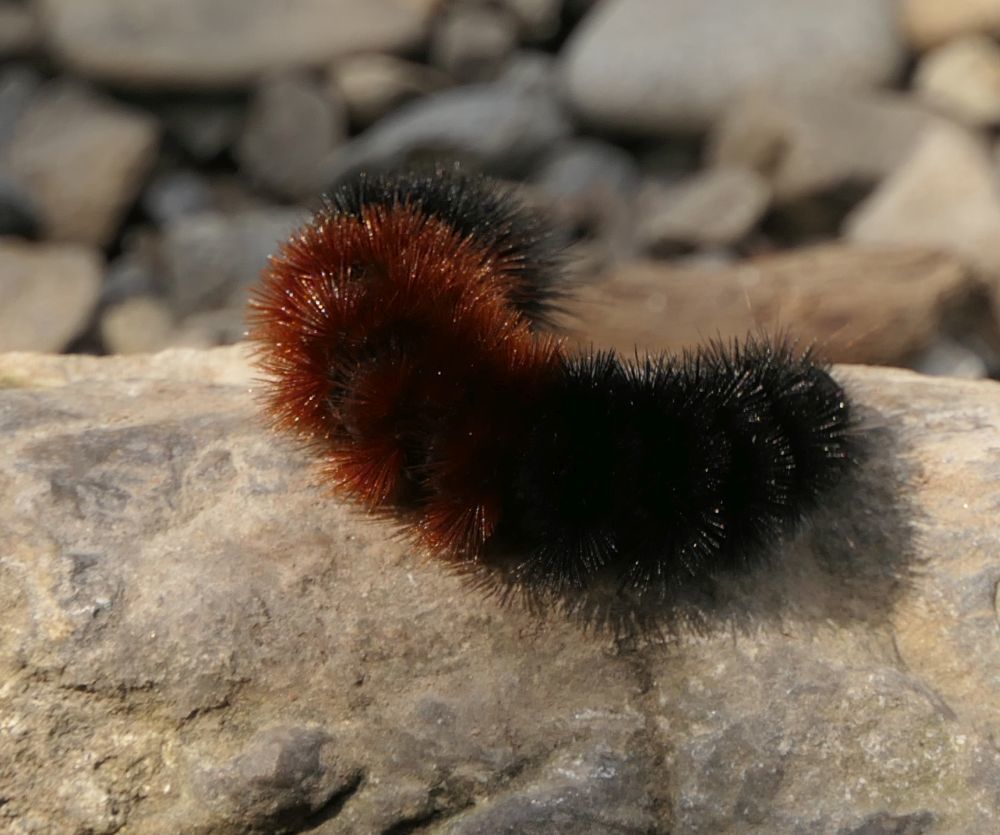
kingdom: Animalia
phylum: Arthropoda
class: Insecta
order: Lepidoptera
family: Erebidae
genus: Pyrrharctia
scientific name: Pyrrharctia isabella
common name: Isabella tiger moth
